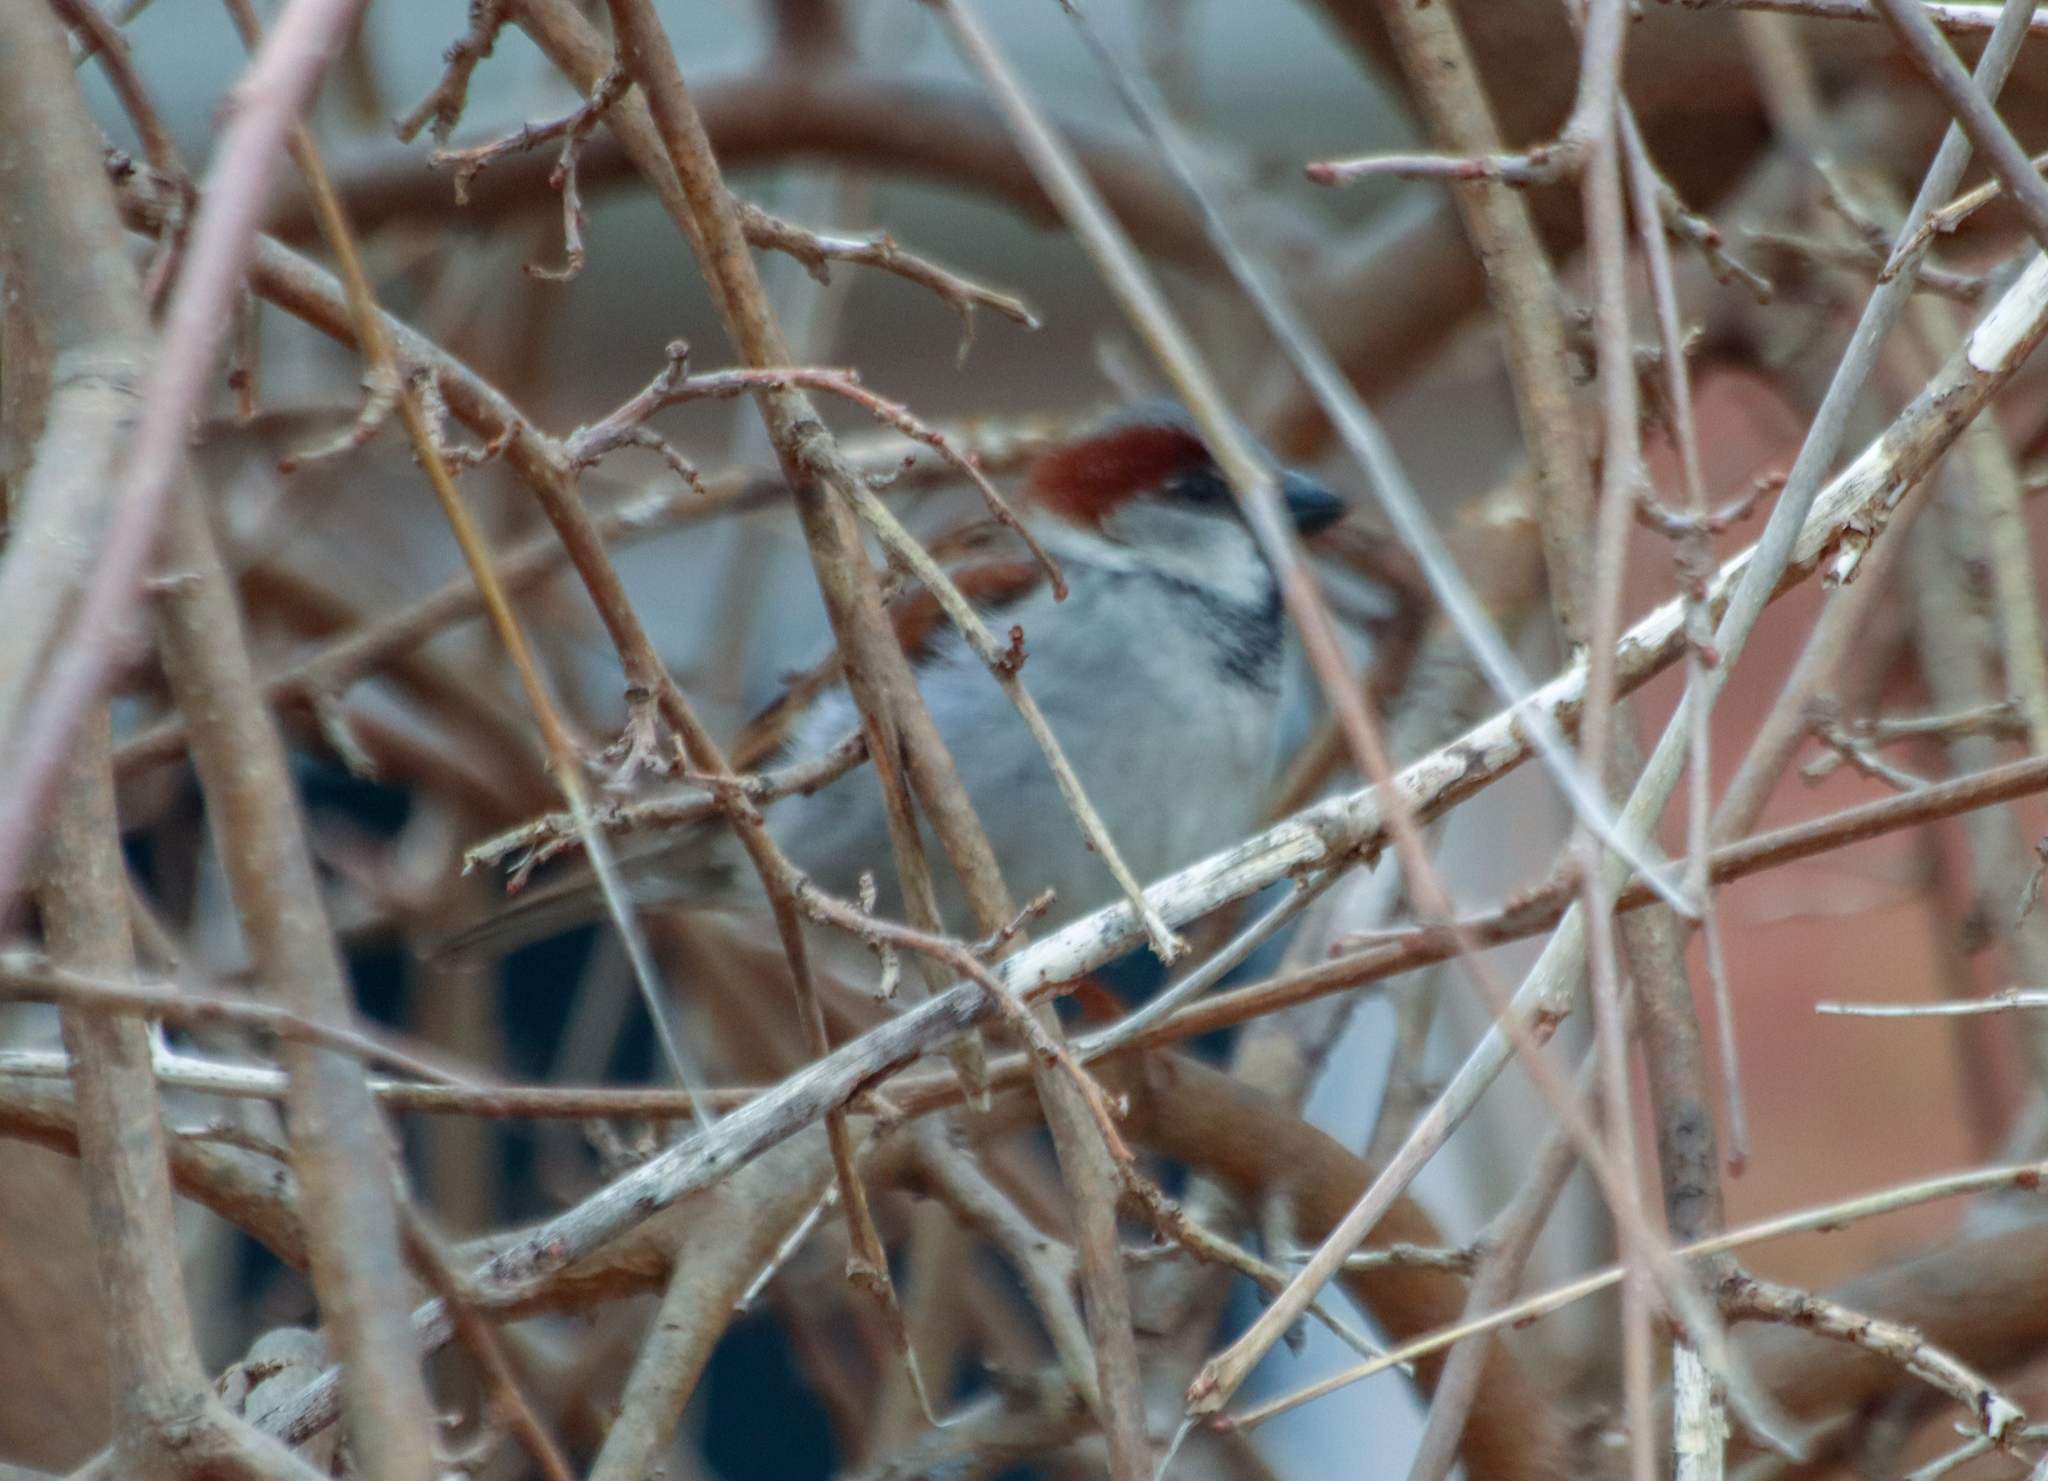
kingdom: Animalia
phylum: Chordata
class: Aves
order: Passeriformes
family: Passeridae
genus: Passer
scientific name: Passer domesticus
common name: House sparrow
